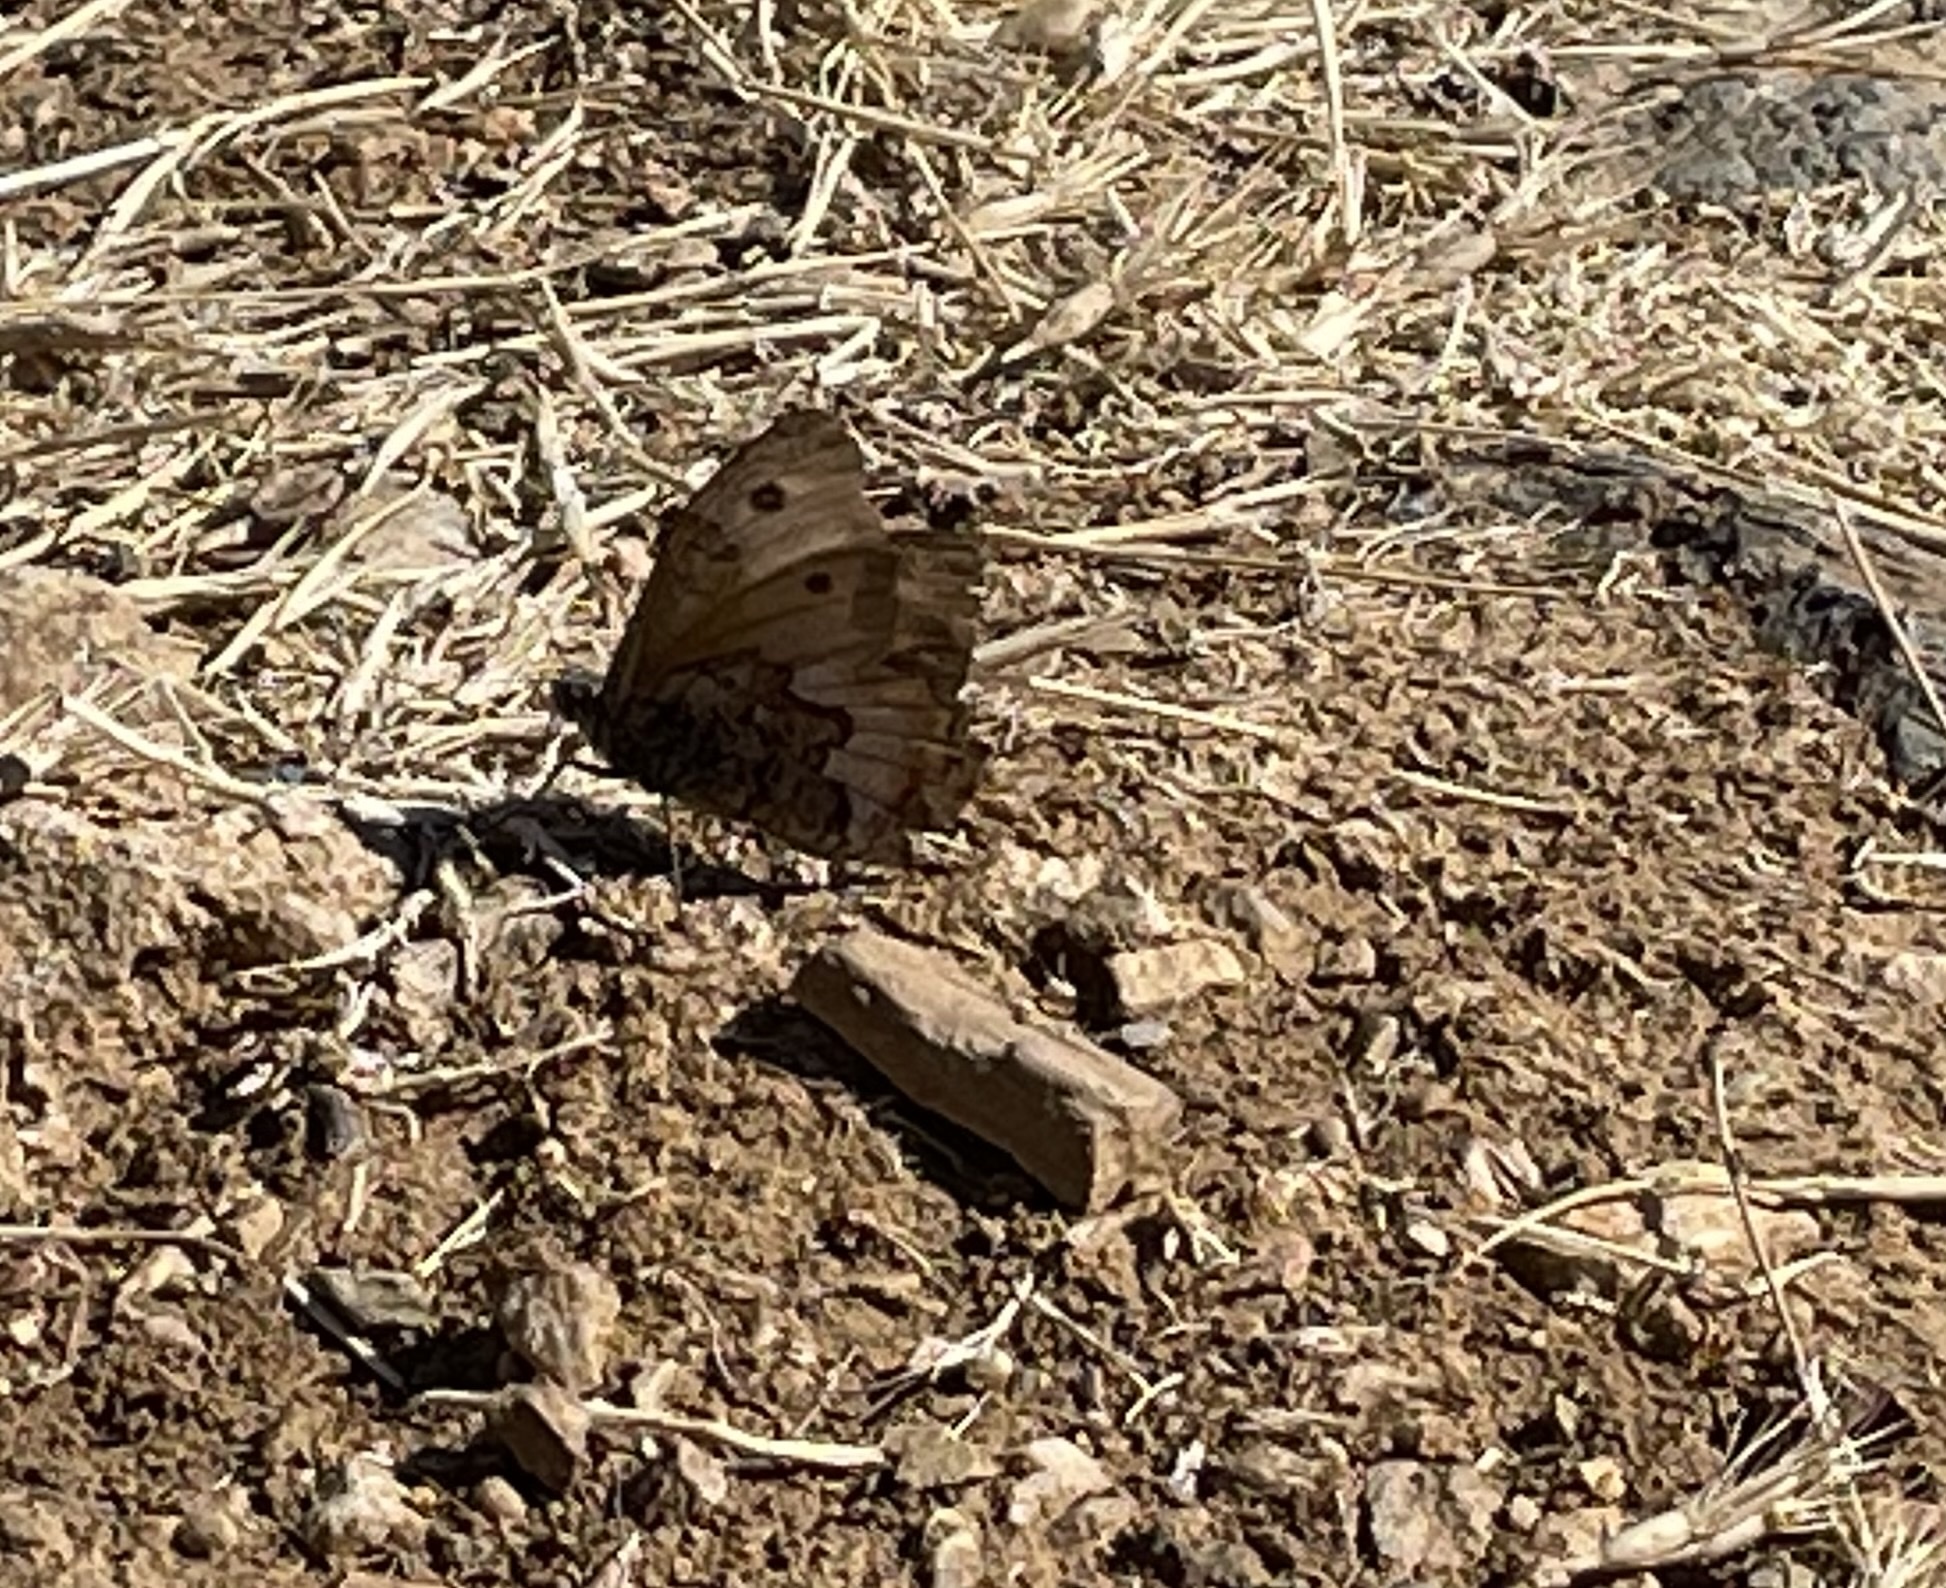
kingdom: Animalia
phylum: Arthropoda
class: Insecta
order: Lepidoptera
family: Nymphalidae
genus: Hipparchia
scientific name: Hipparchia semele
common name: Grayling
